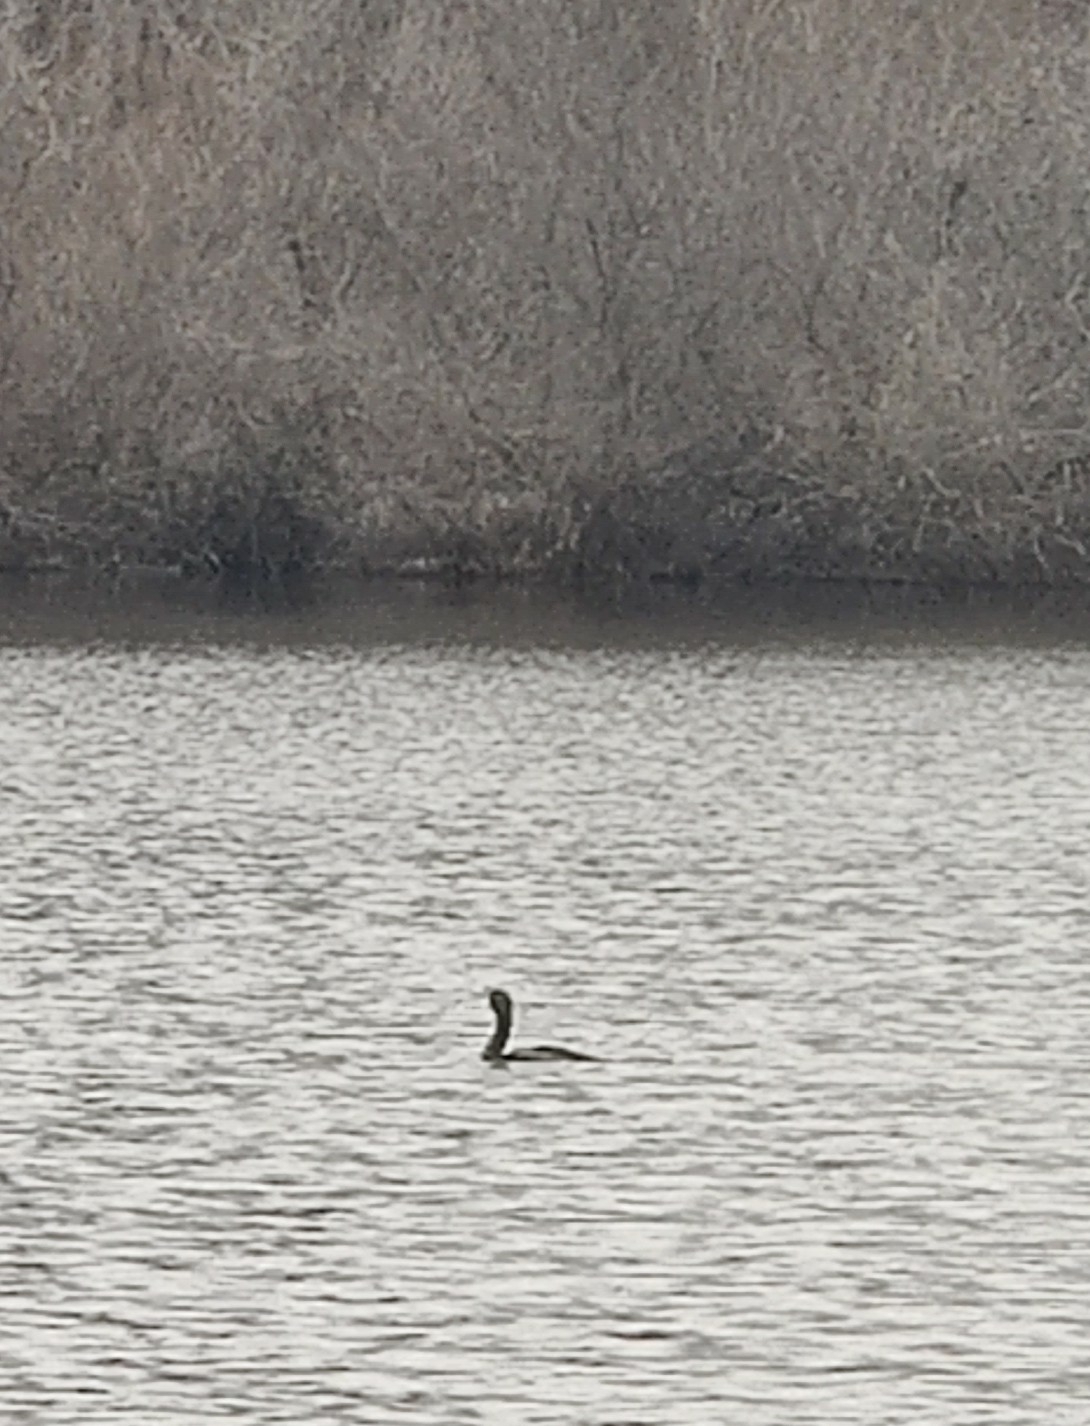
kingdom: Animalia
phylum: Chordata
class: Aves
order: Suliformes
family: Phalacrocoracidae
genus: Phalacrocorax
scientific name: Phalacrocorax auritus
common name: Double-crested cormorant
